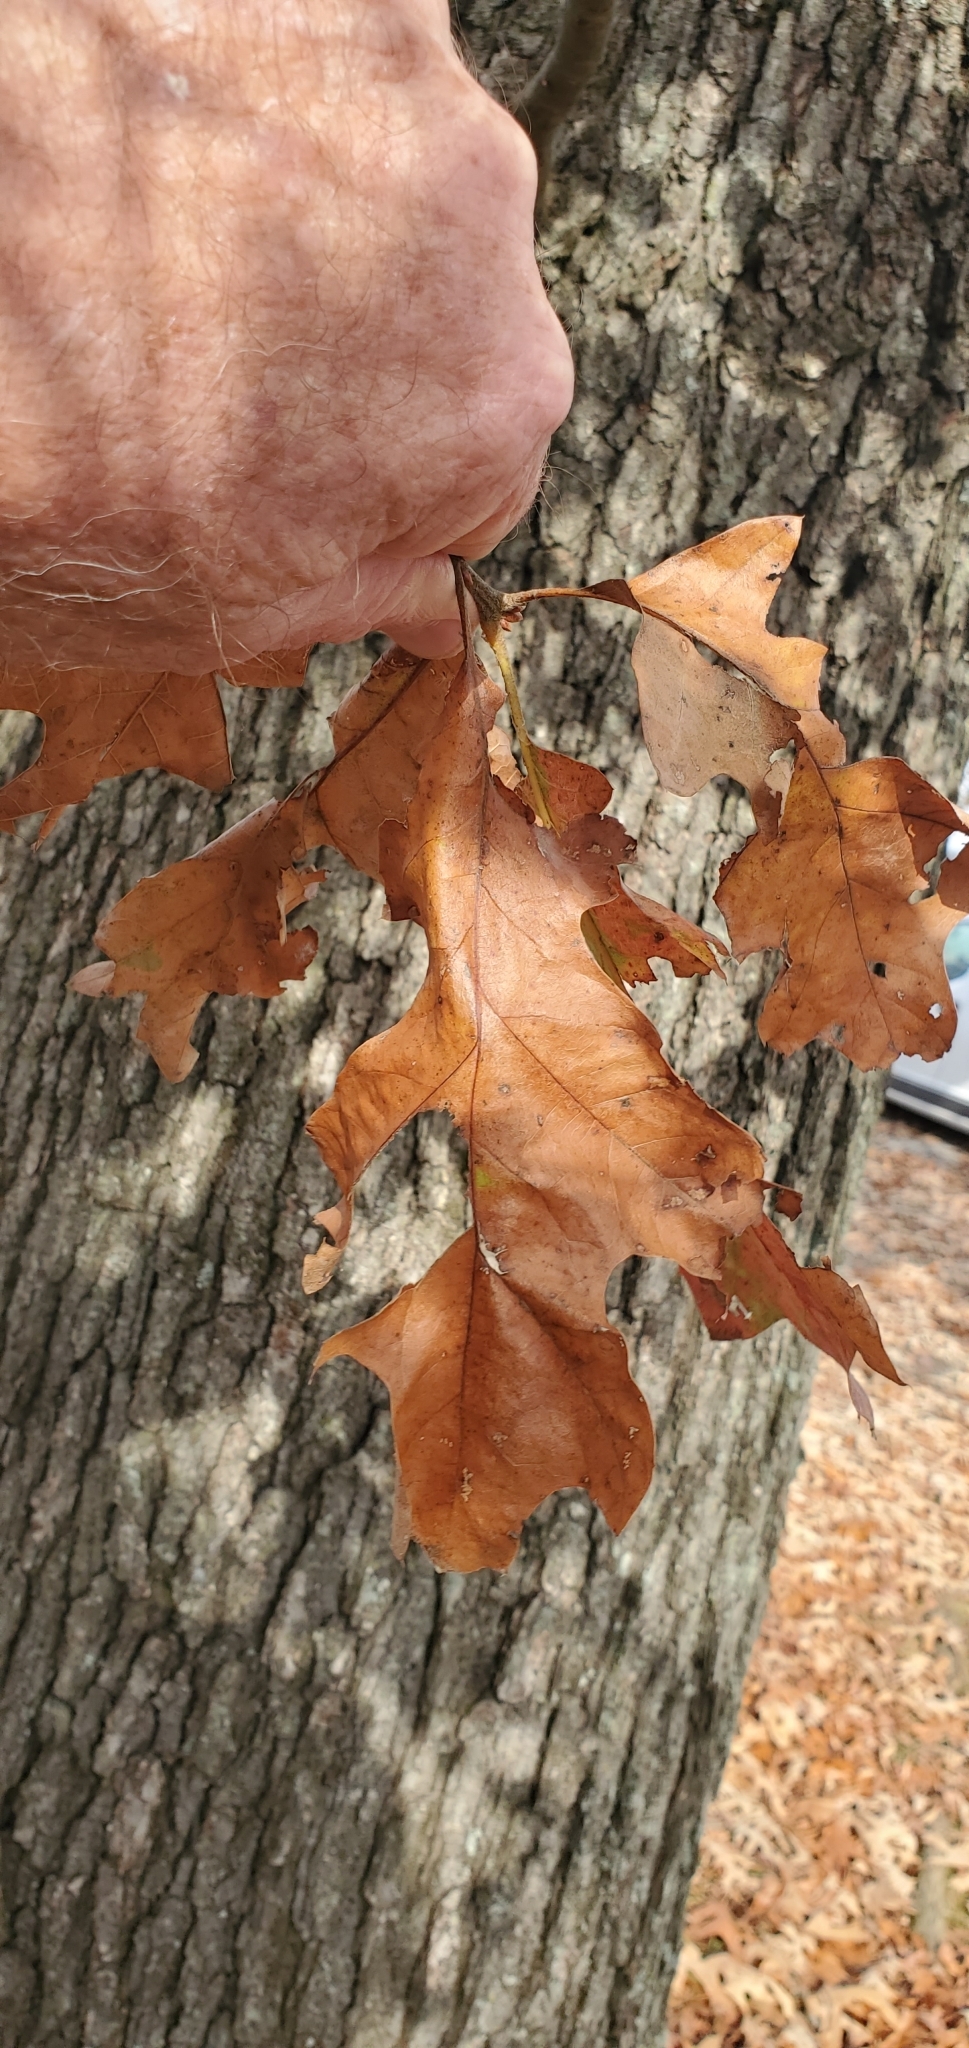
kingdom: Plantae
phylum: Tracheophyta
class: Magnoliopsida
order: Fagales
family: Fagaceae
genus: Quercus
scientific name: Quercus velutina
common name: Black oak
